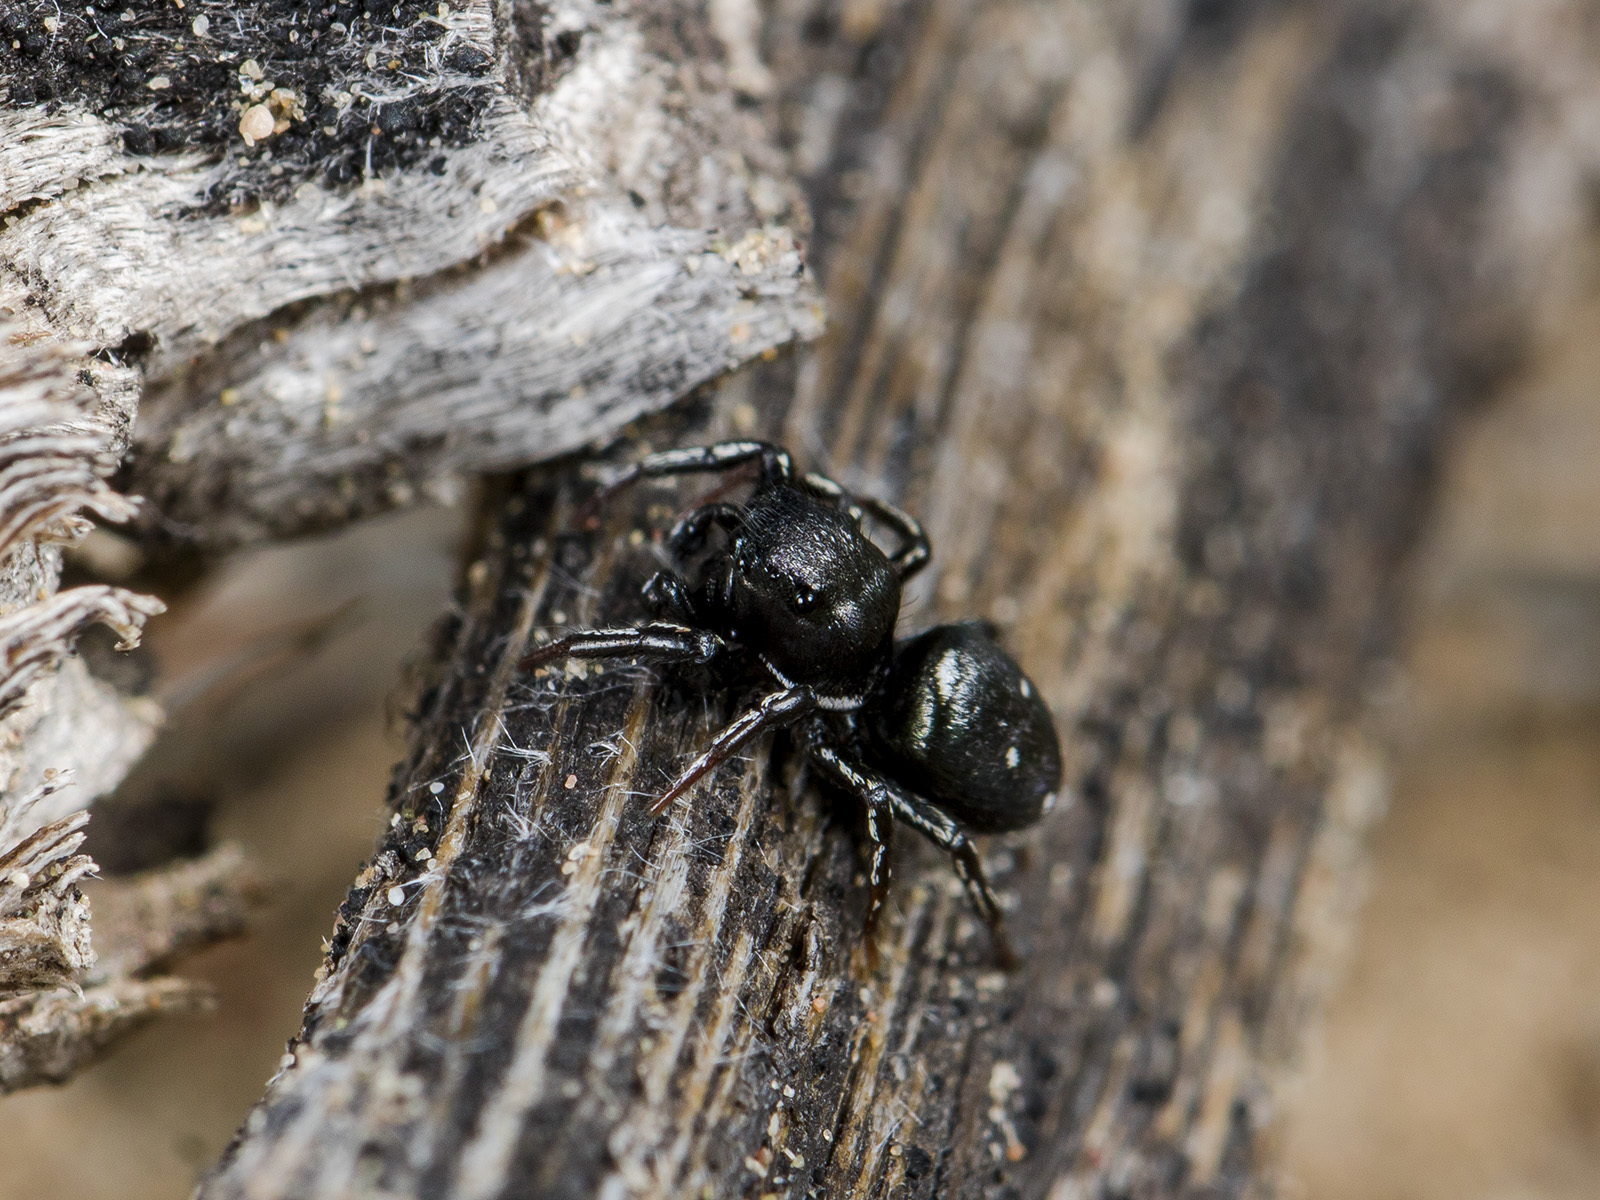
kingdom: Animalia
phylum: Arthropoda
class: Arachnida
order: Araneae
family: Salticidae
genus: Heliophanus
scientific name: Heliophanus chovdensis
